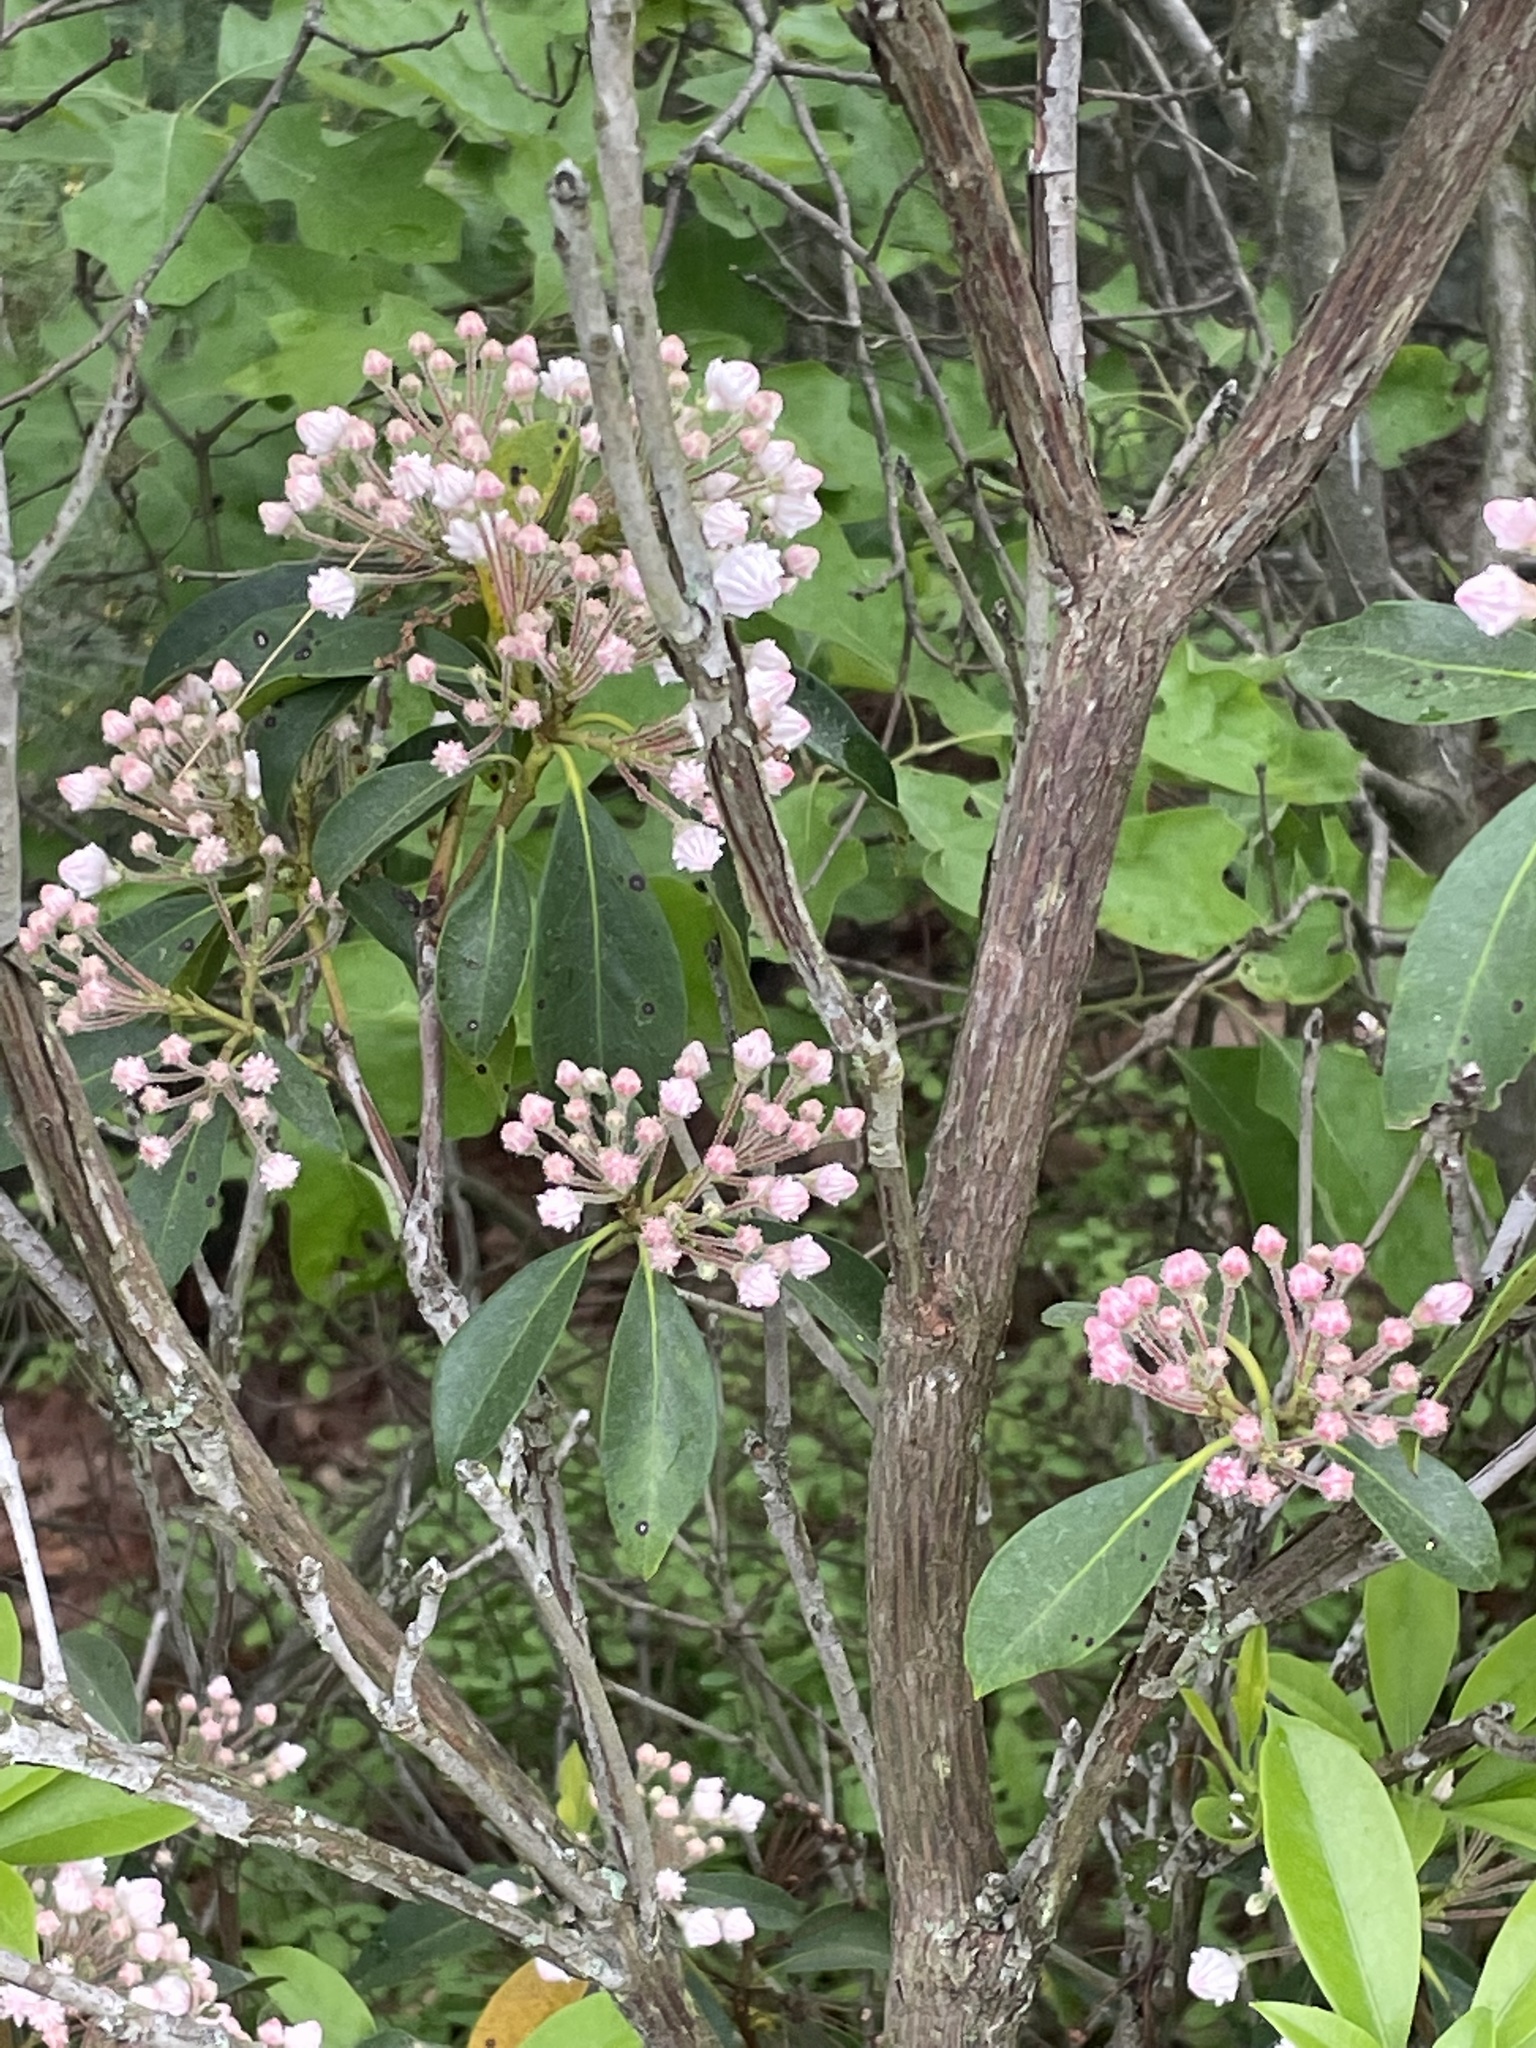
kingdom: Plantae
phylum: Tracheophyta
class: Magnoliopsida
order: Ericales
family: Ericaceae
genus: Kalmia
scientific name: Kalmia latifolia
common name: Mountain-laurel
